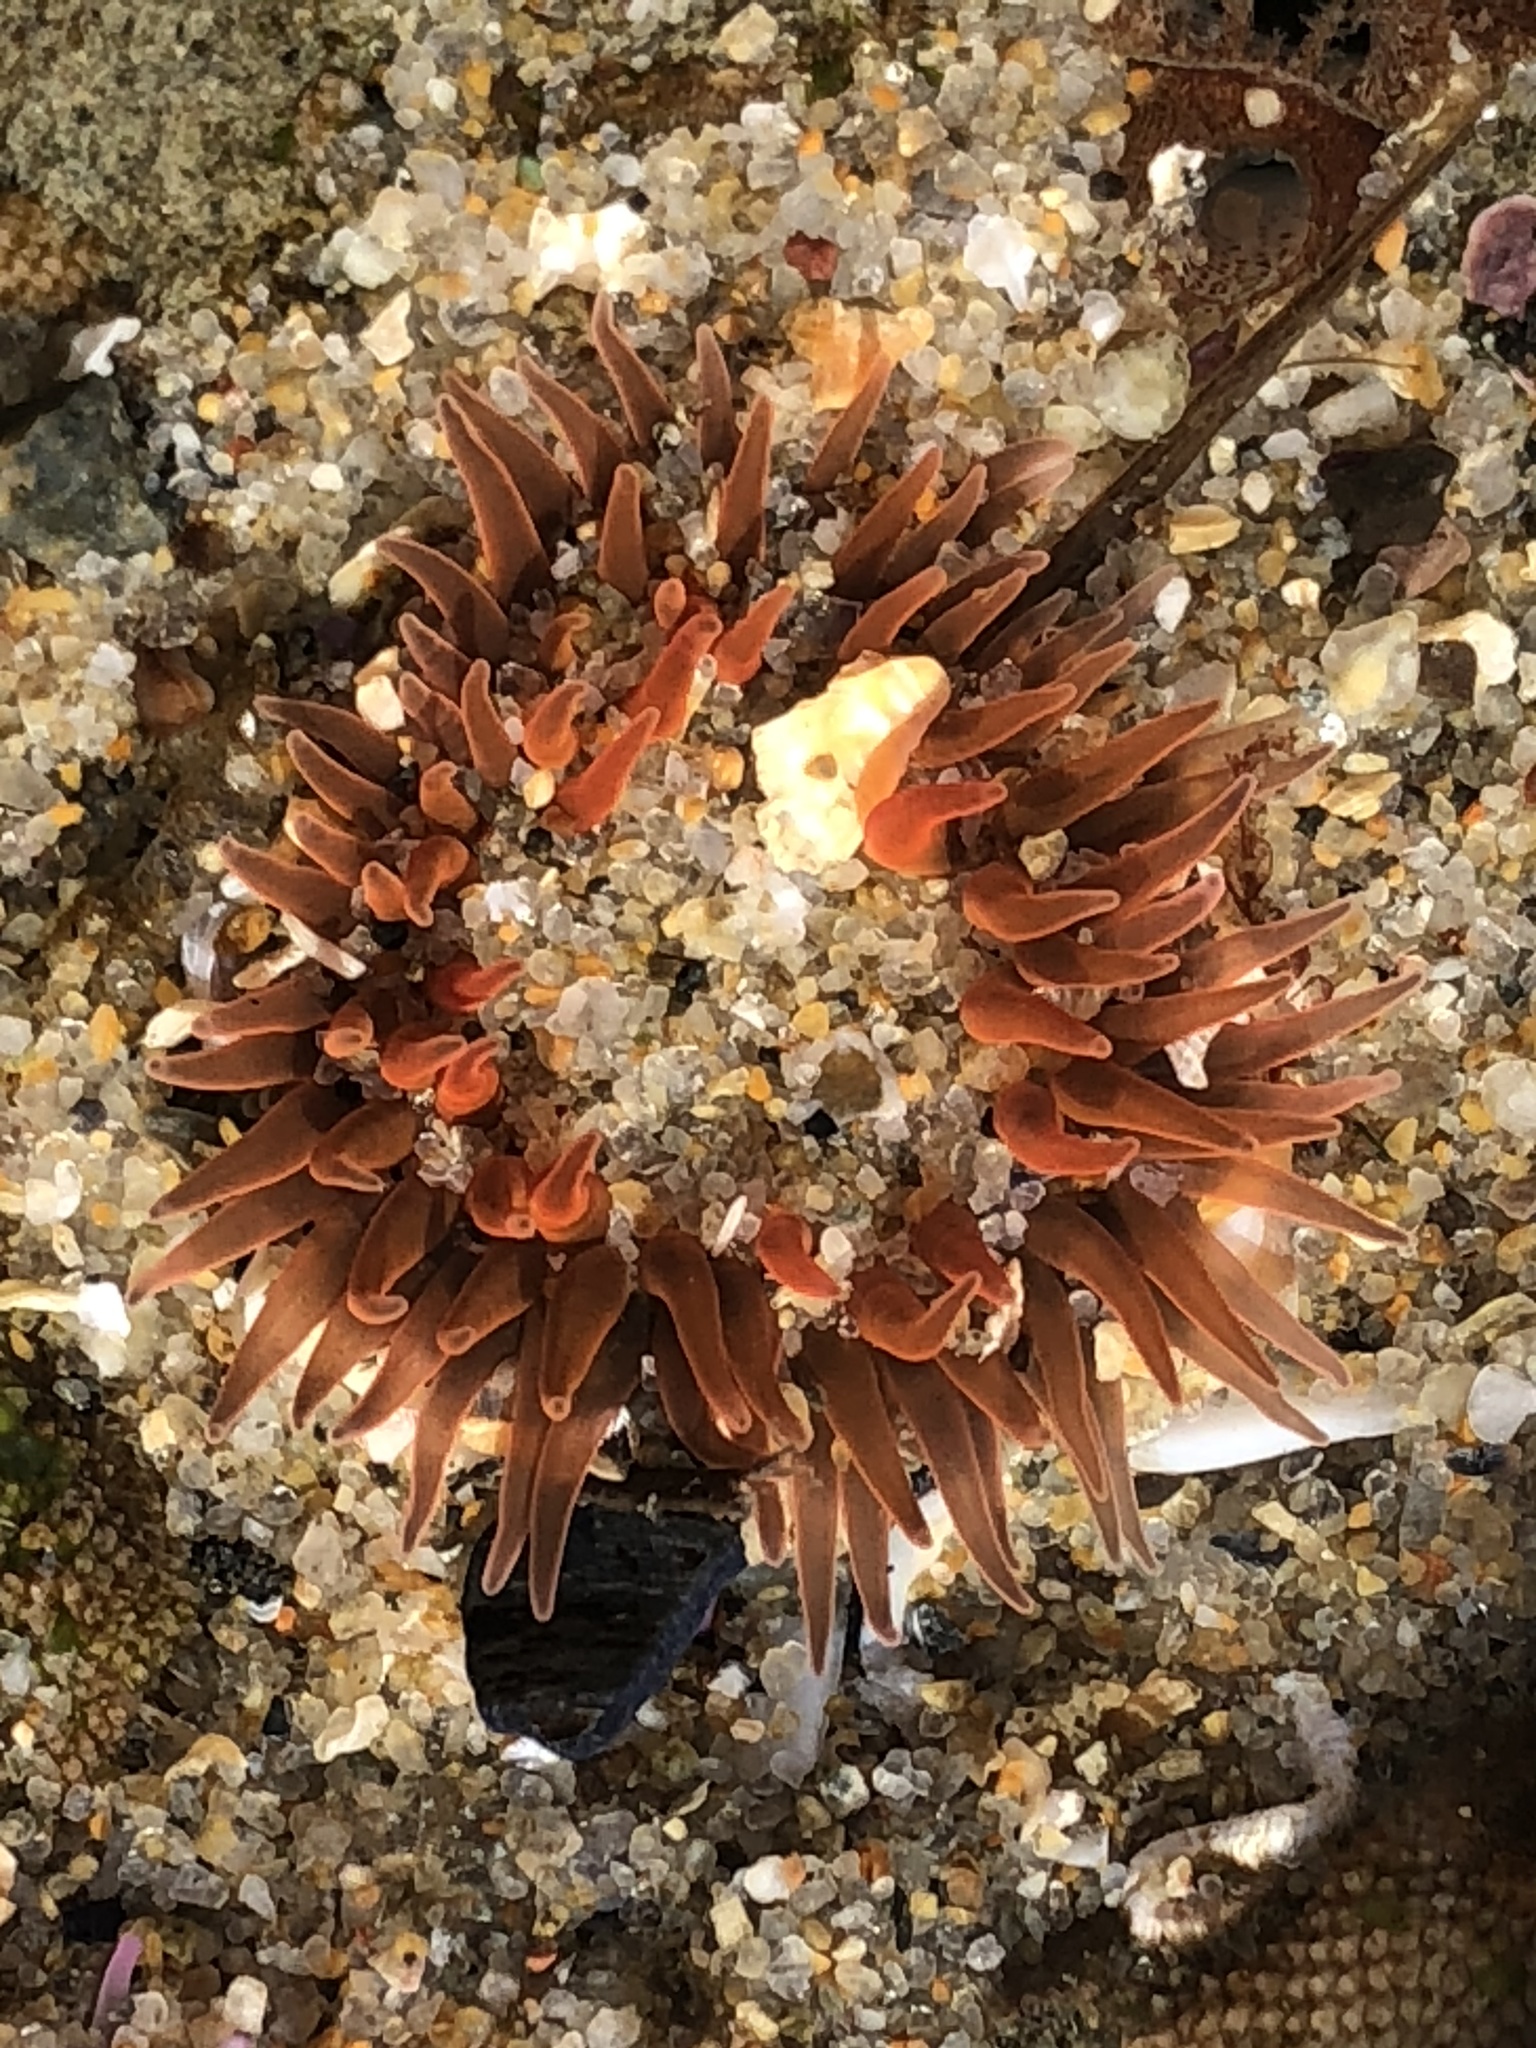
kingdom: Animalia
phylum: Cnidaria
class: Anthozoa
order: Actiniaria
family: Actiniidae
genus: Anthopleura
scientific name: Anthopleura artemisia
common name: Buried sea anemone
